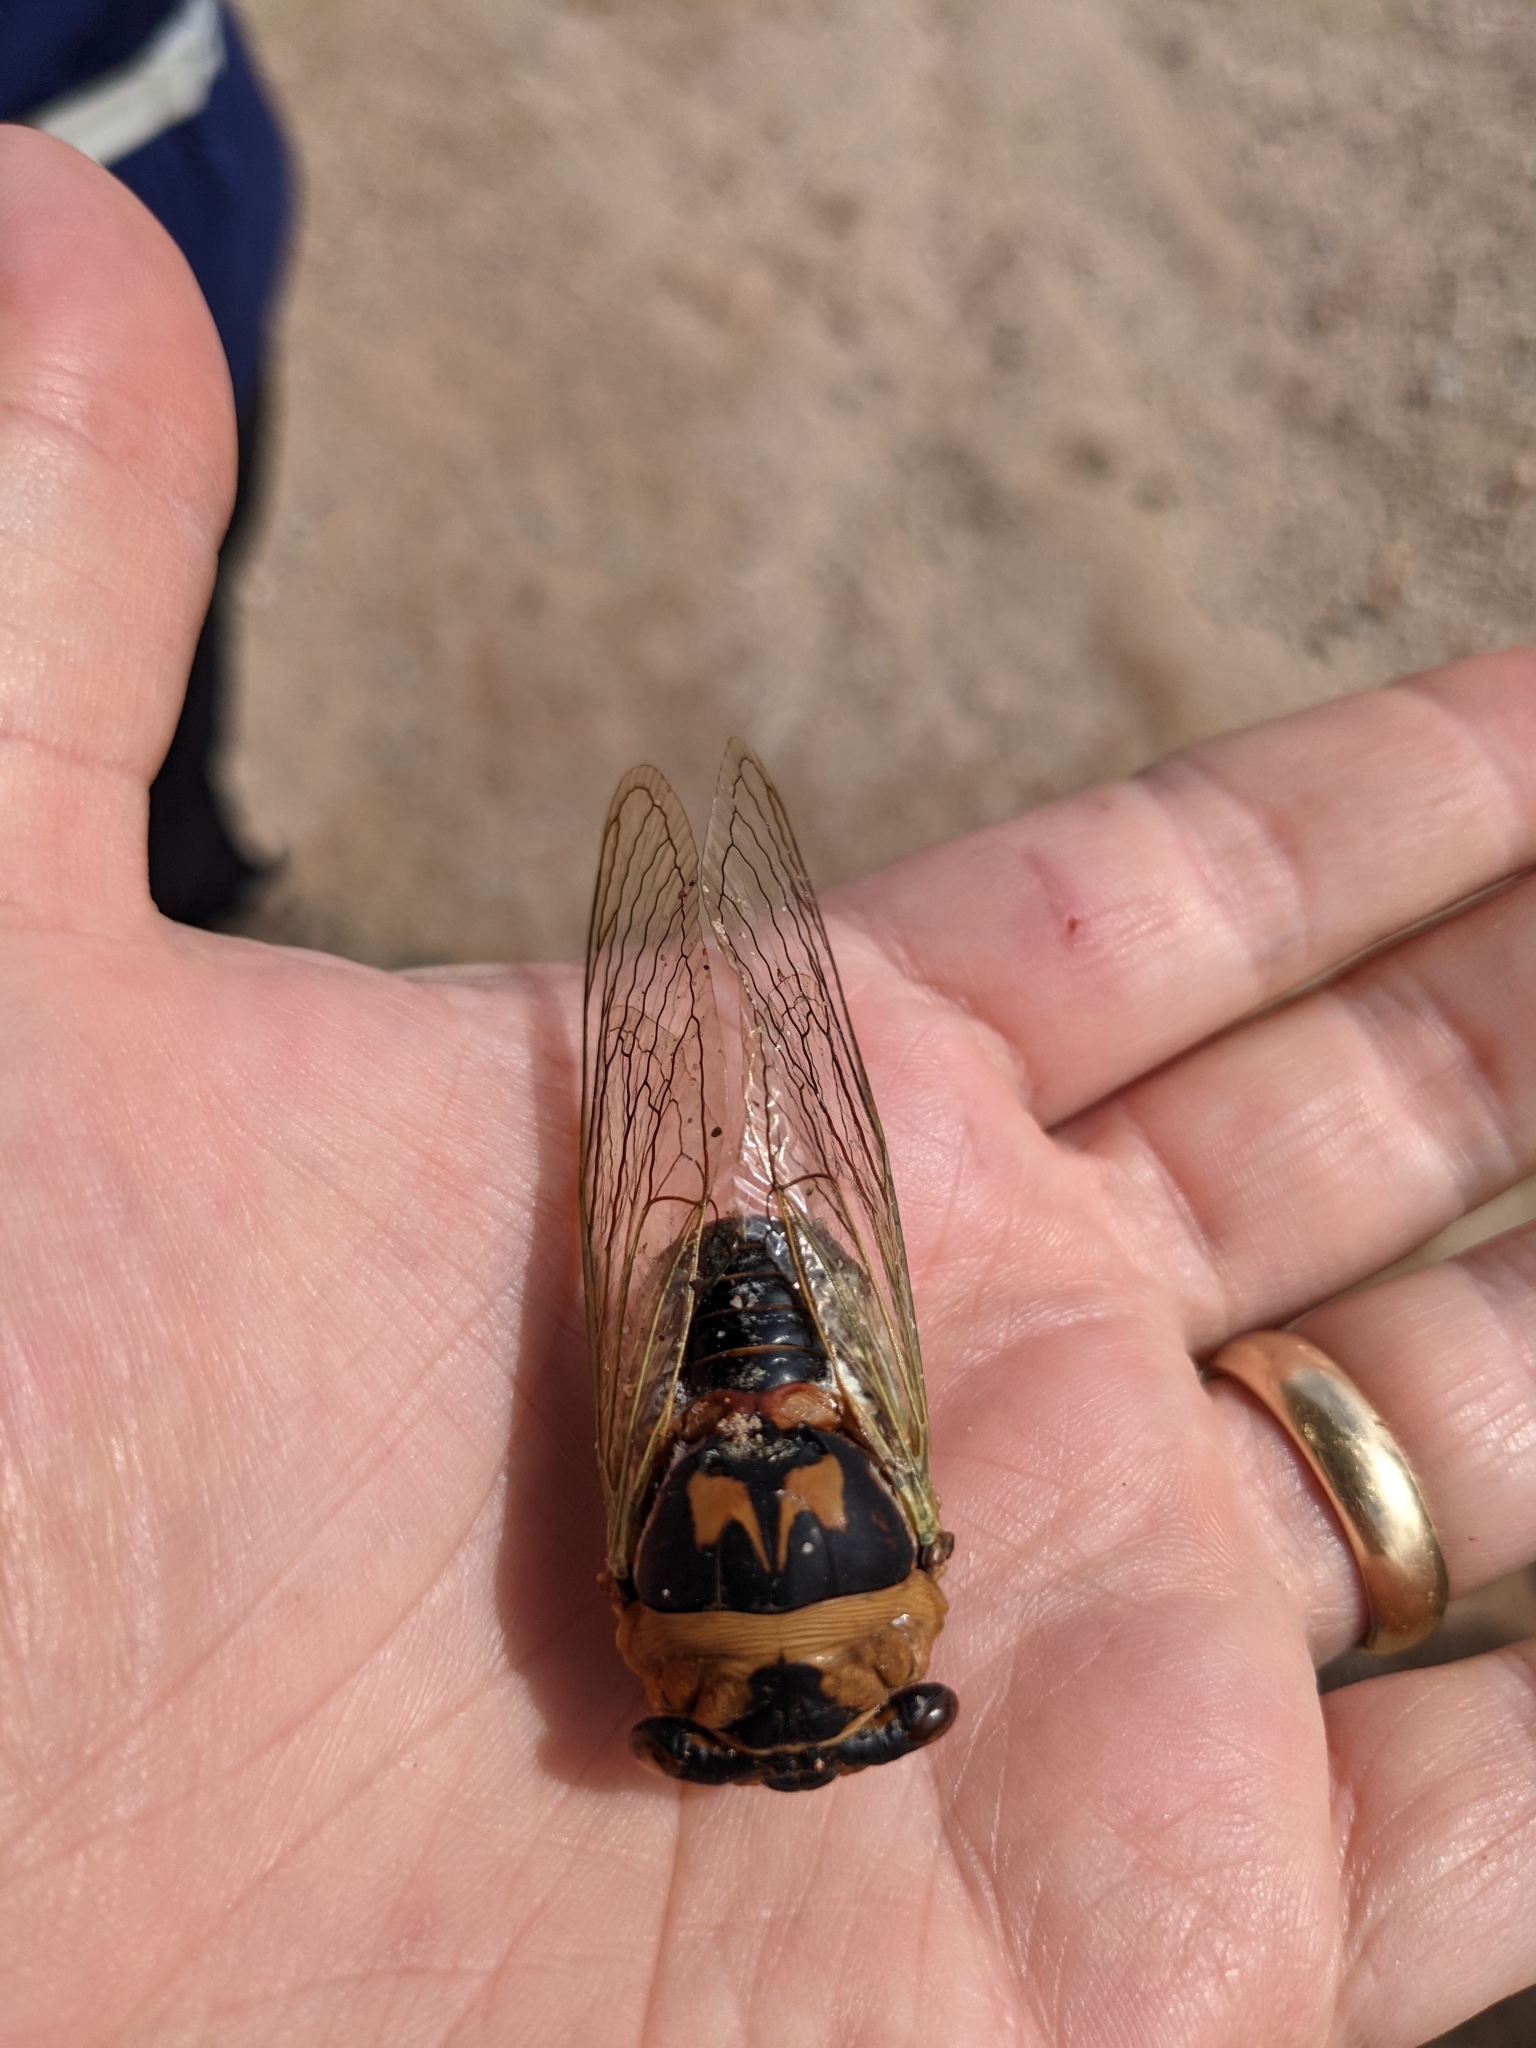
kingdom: Animalia
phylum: Arthropoda
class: Insecta
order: Hemiptera
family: Cicadidae
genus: Megatibicen
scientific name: Megatibicen cultriformis
